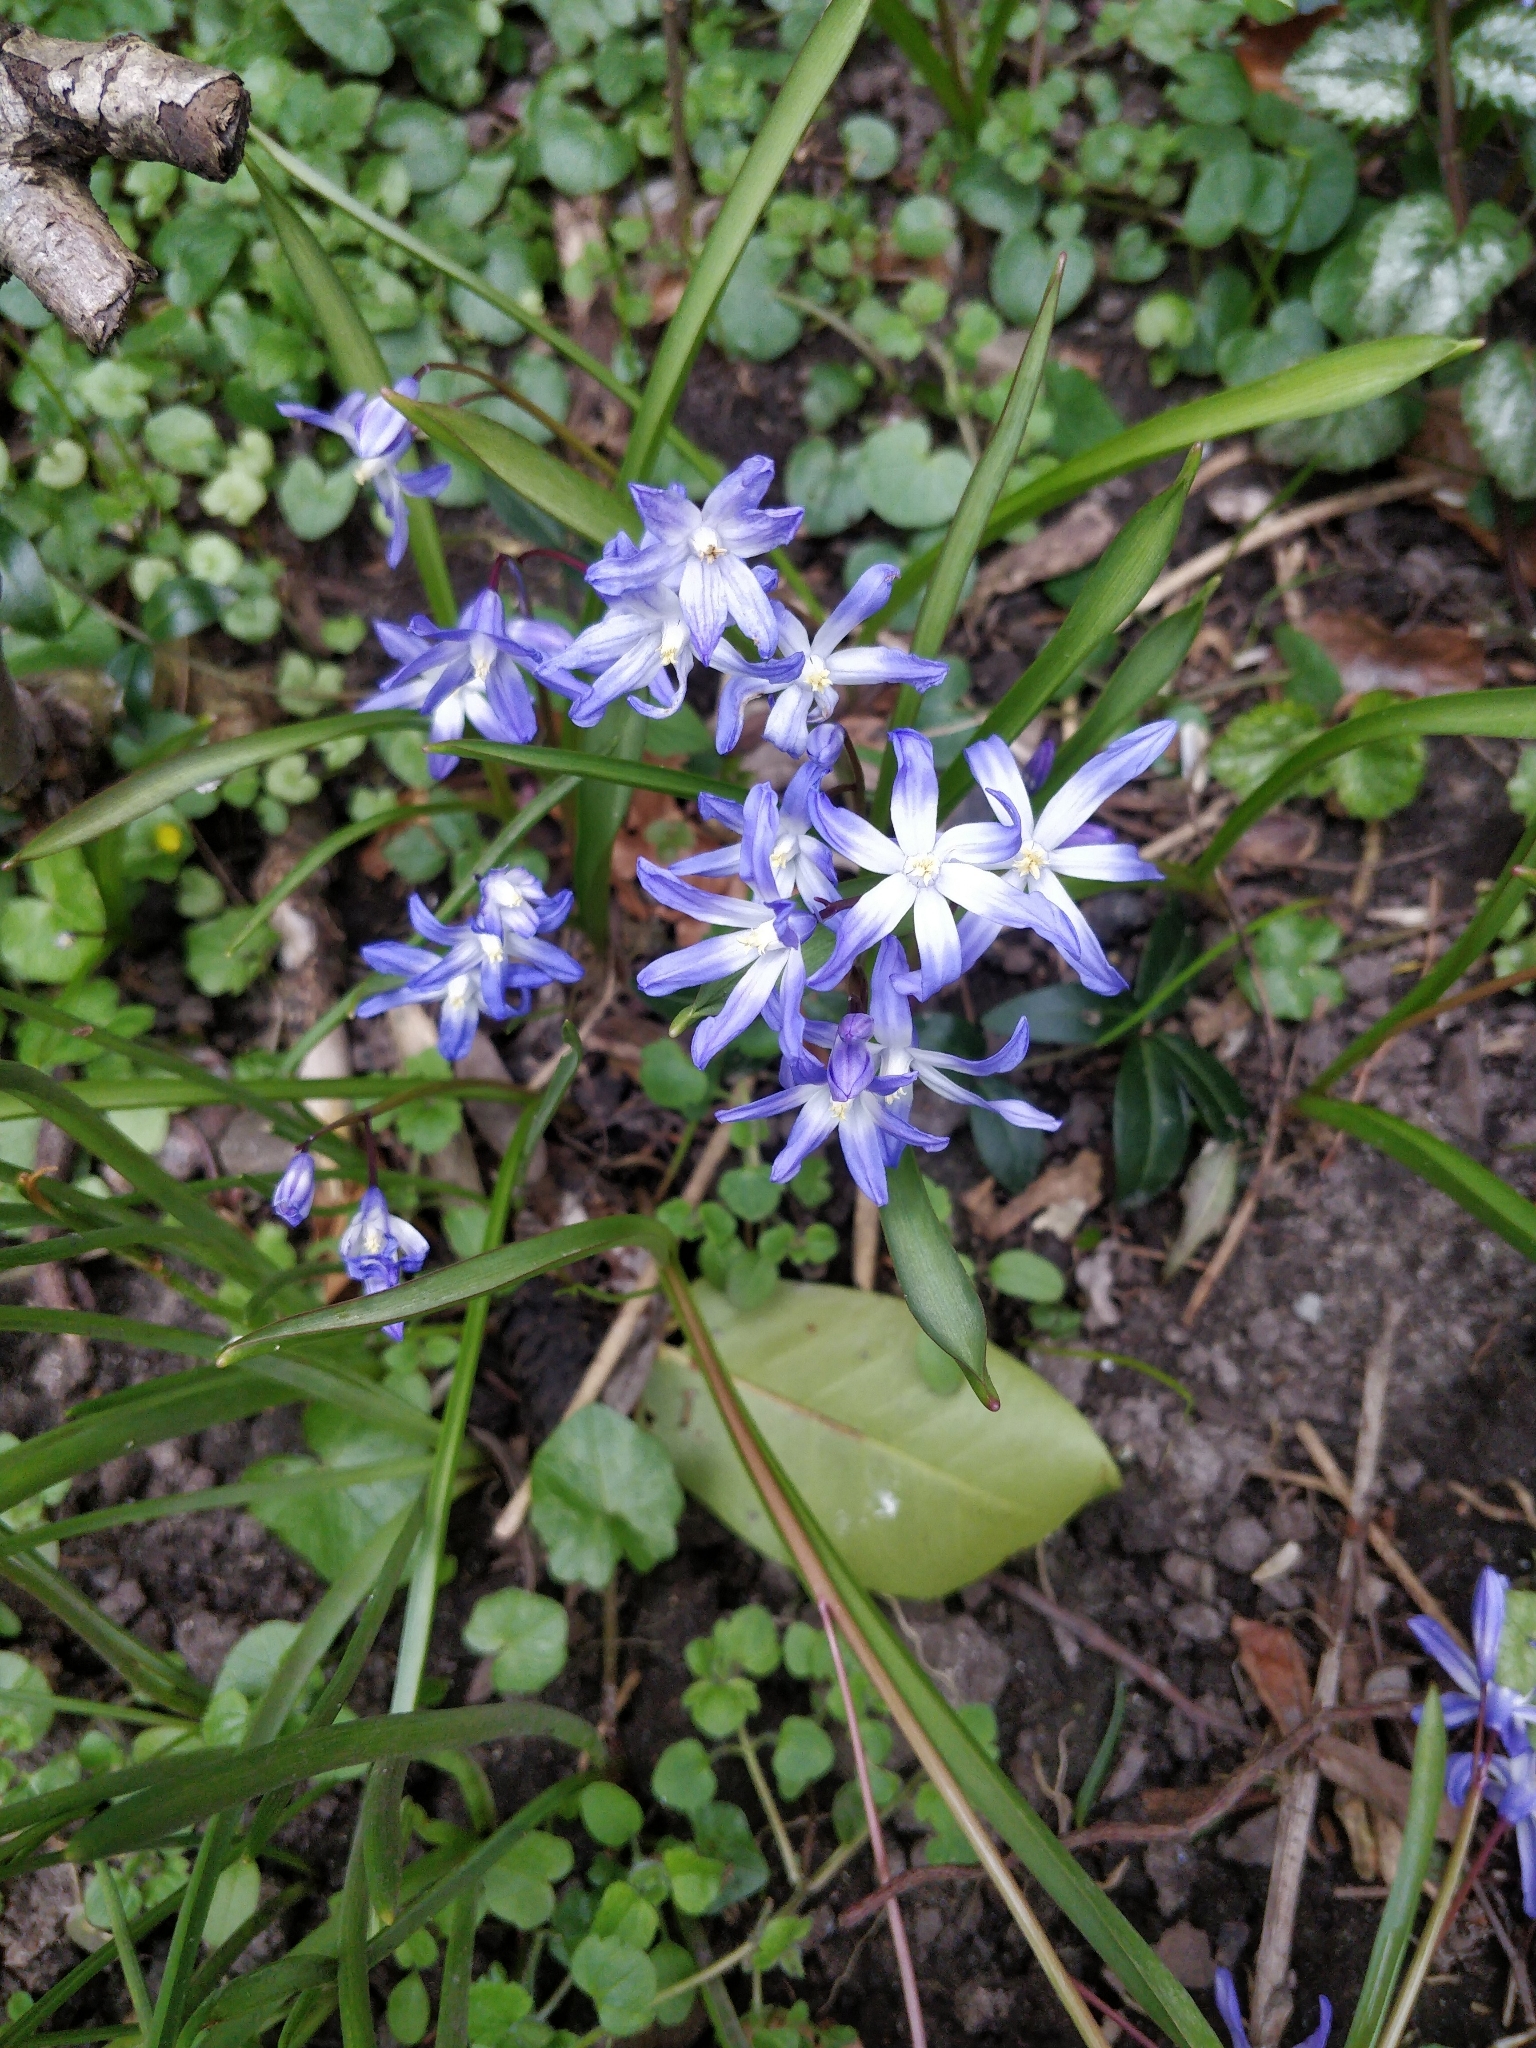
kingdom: Plantae
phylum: Tracheophyta
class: Liliopsida
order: Asparagales
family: Asparagaceae
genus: Scilla
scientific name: Scilla forbesii
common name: Glory-of-the-snow
